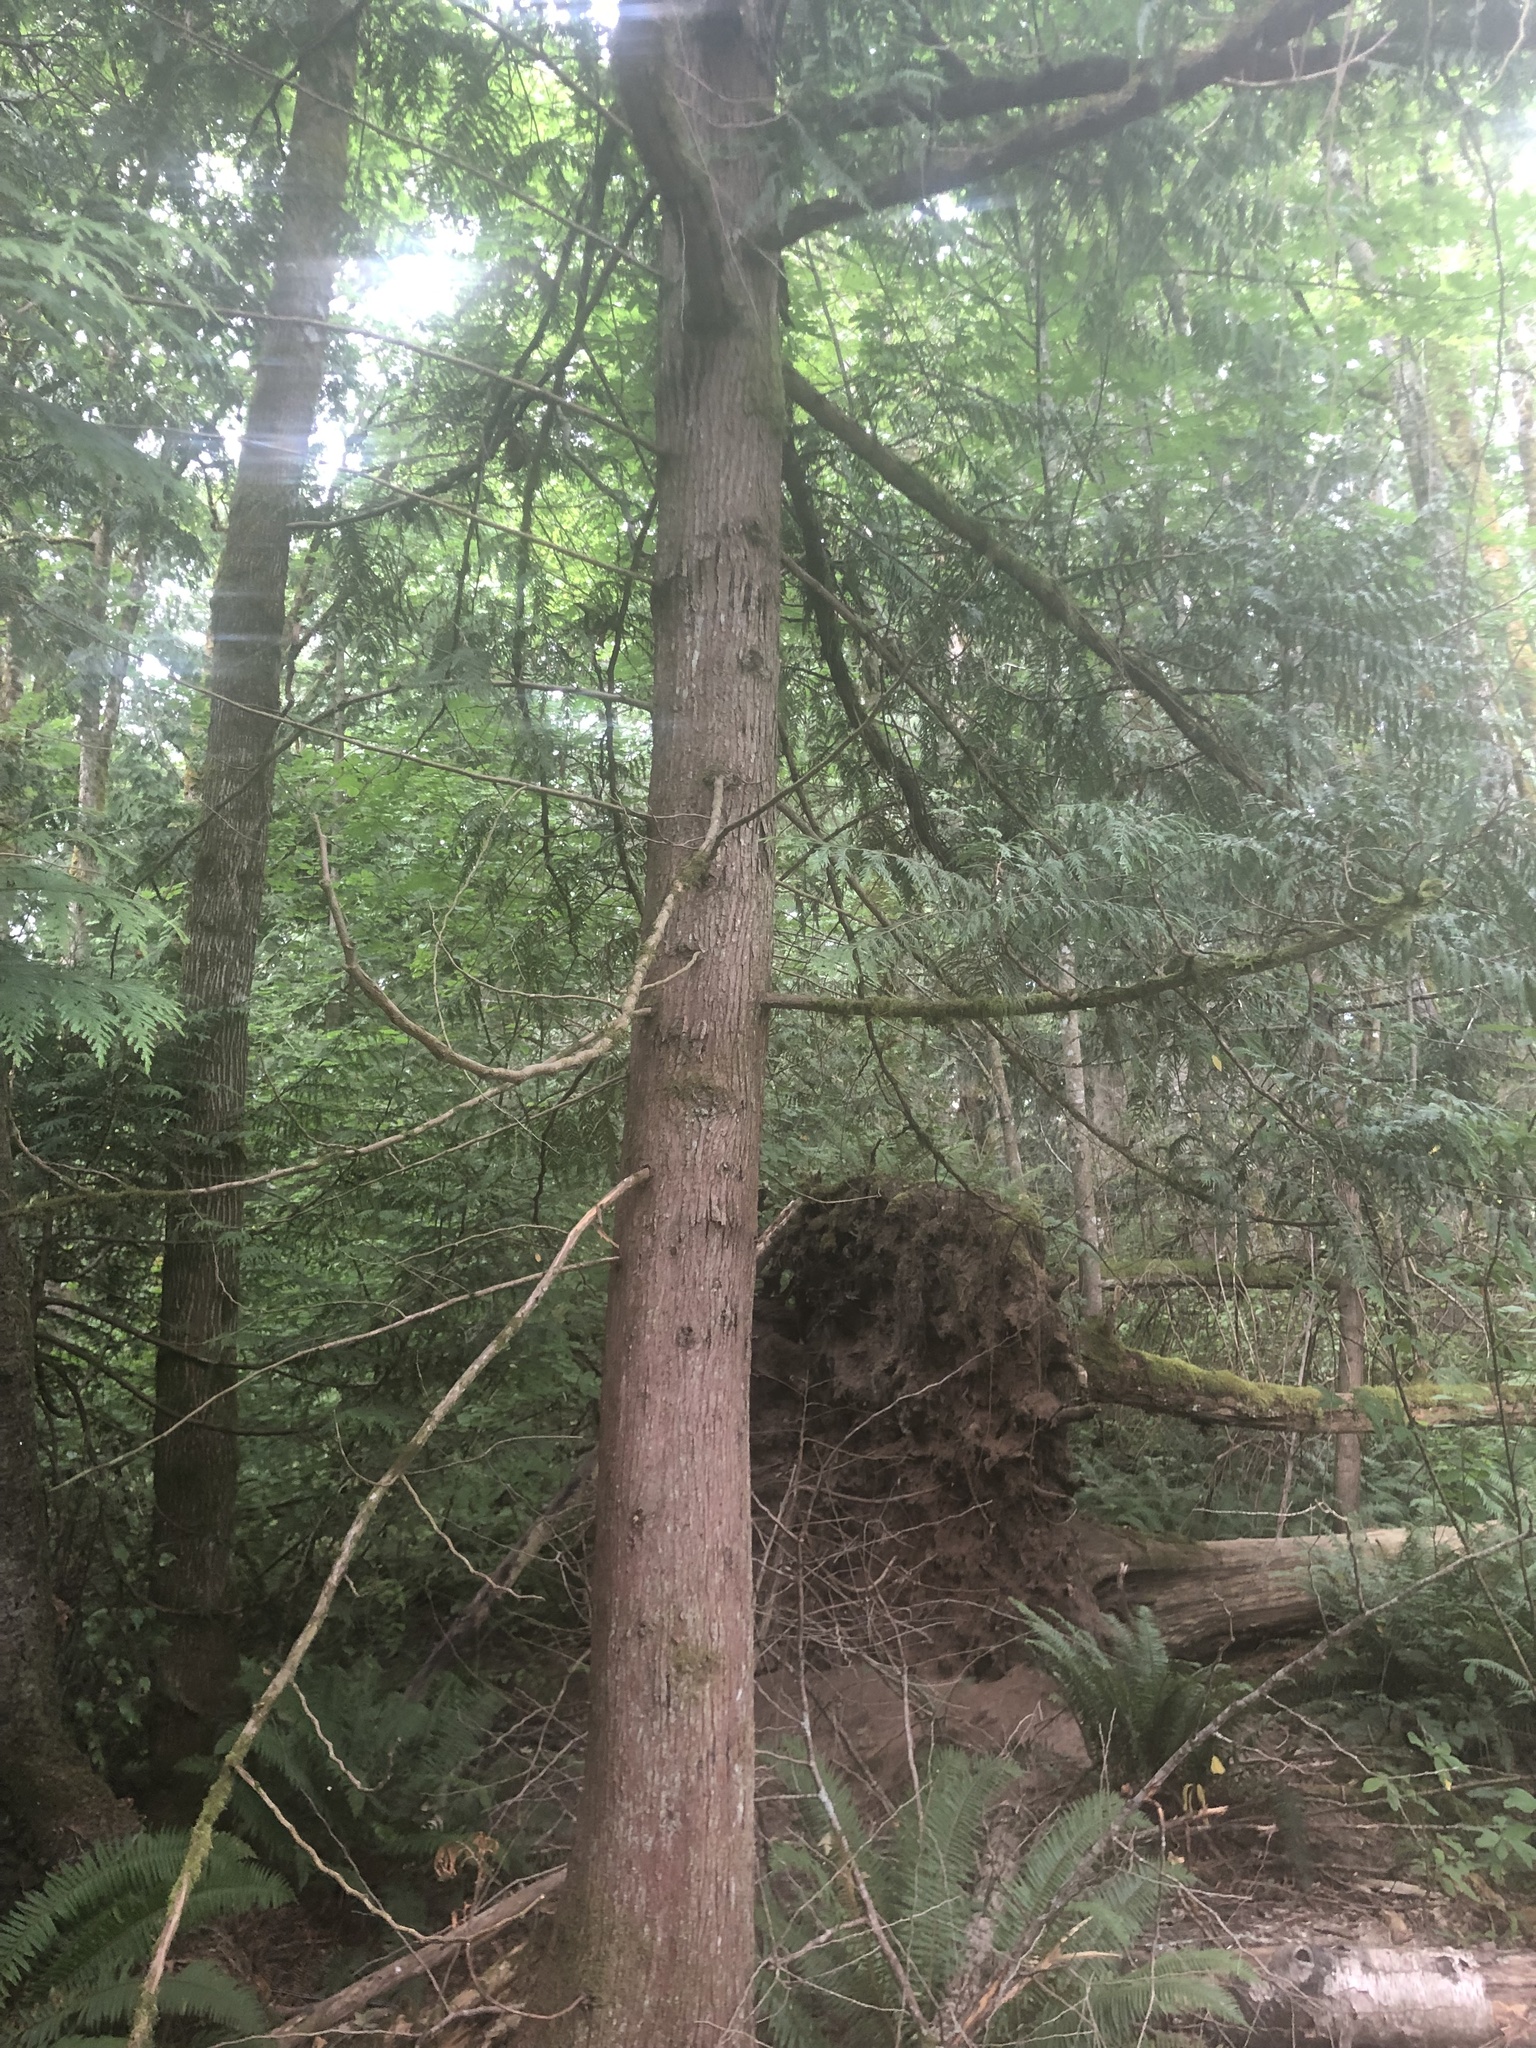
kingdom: Plantae
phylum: Tracheophyta
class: Pinopsida
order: Pinales
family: Cupressaceae
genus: Thuja
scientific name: Thuja plicata
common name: Western red-cedar
